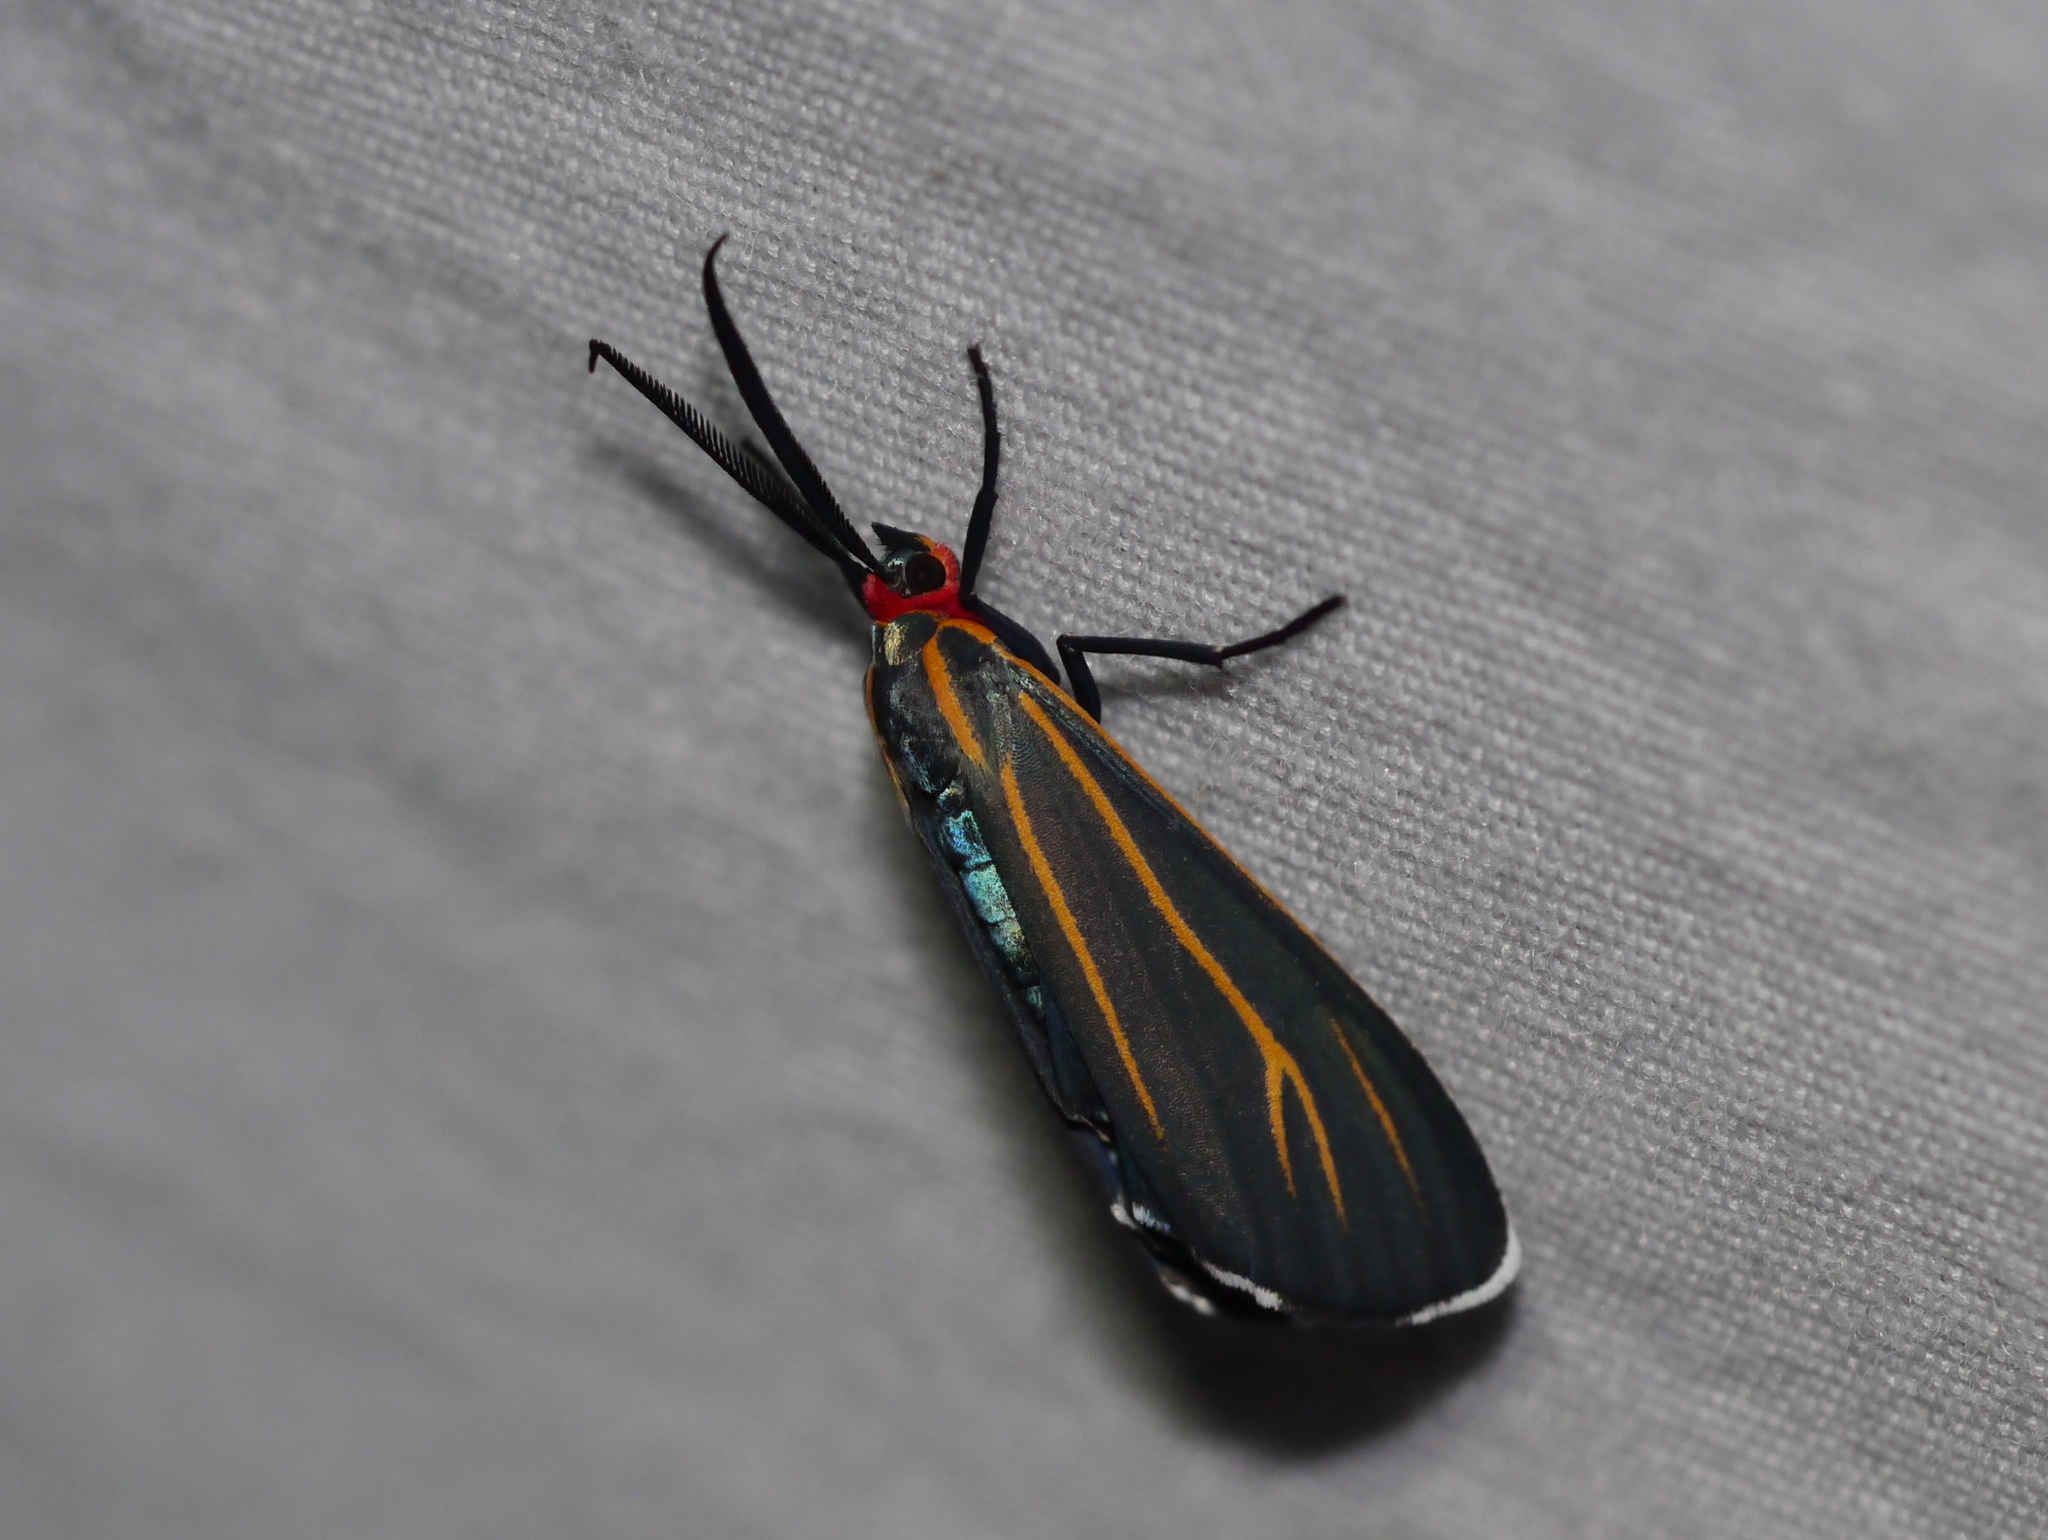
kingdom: Animalia
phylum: Arthropoda
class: Insecta
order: Lepidoptera
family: Erebidae
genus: Ctenucha
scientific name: Ctenucha venosa
